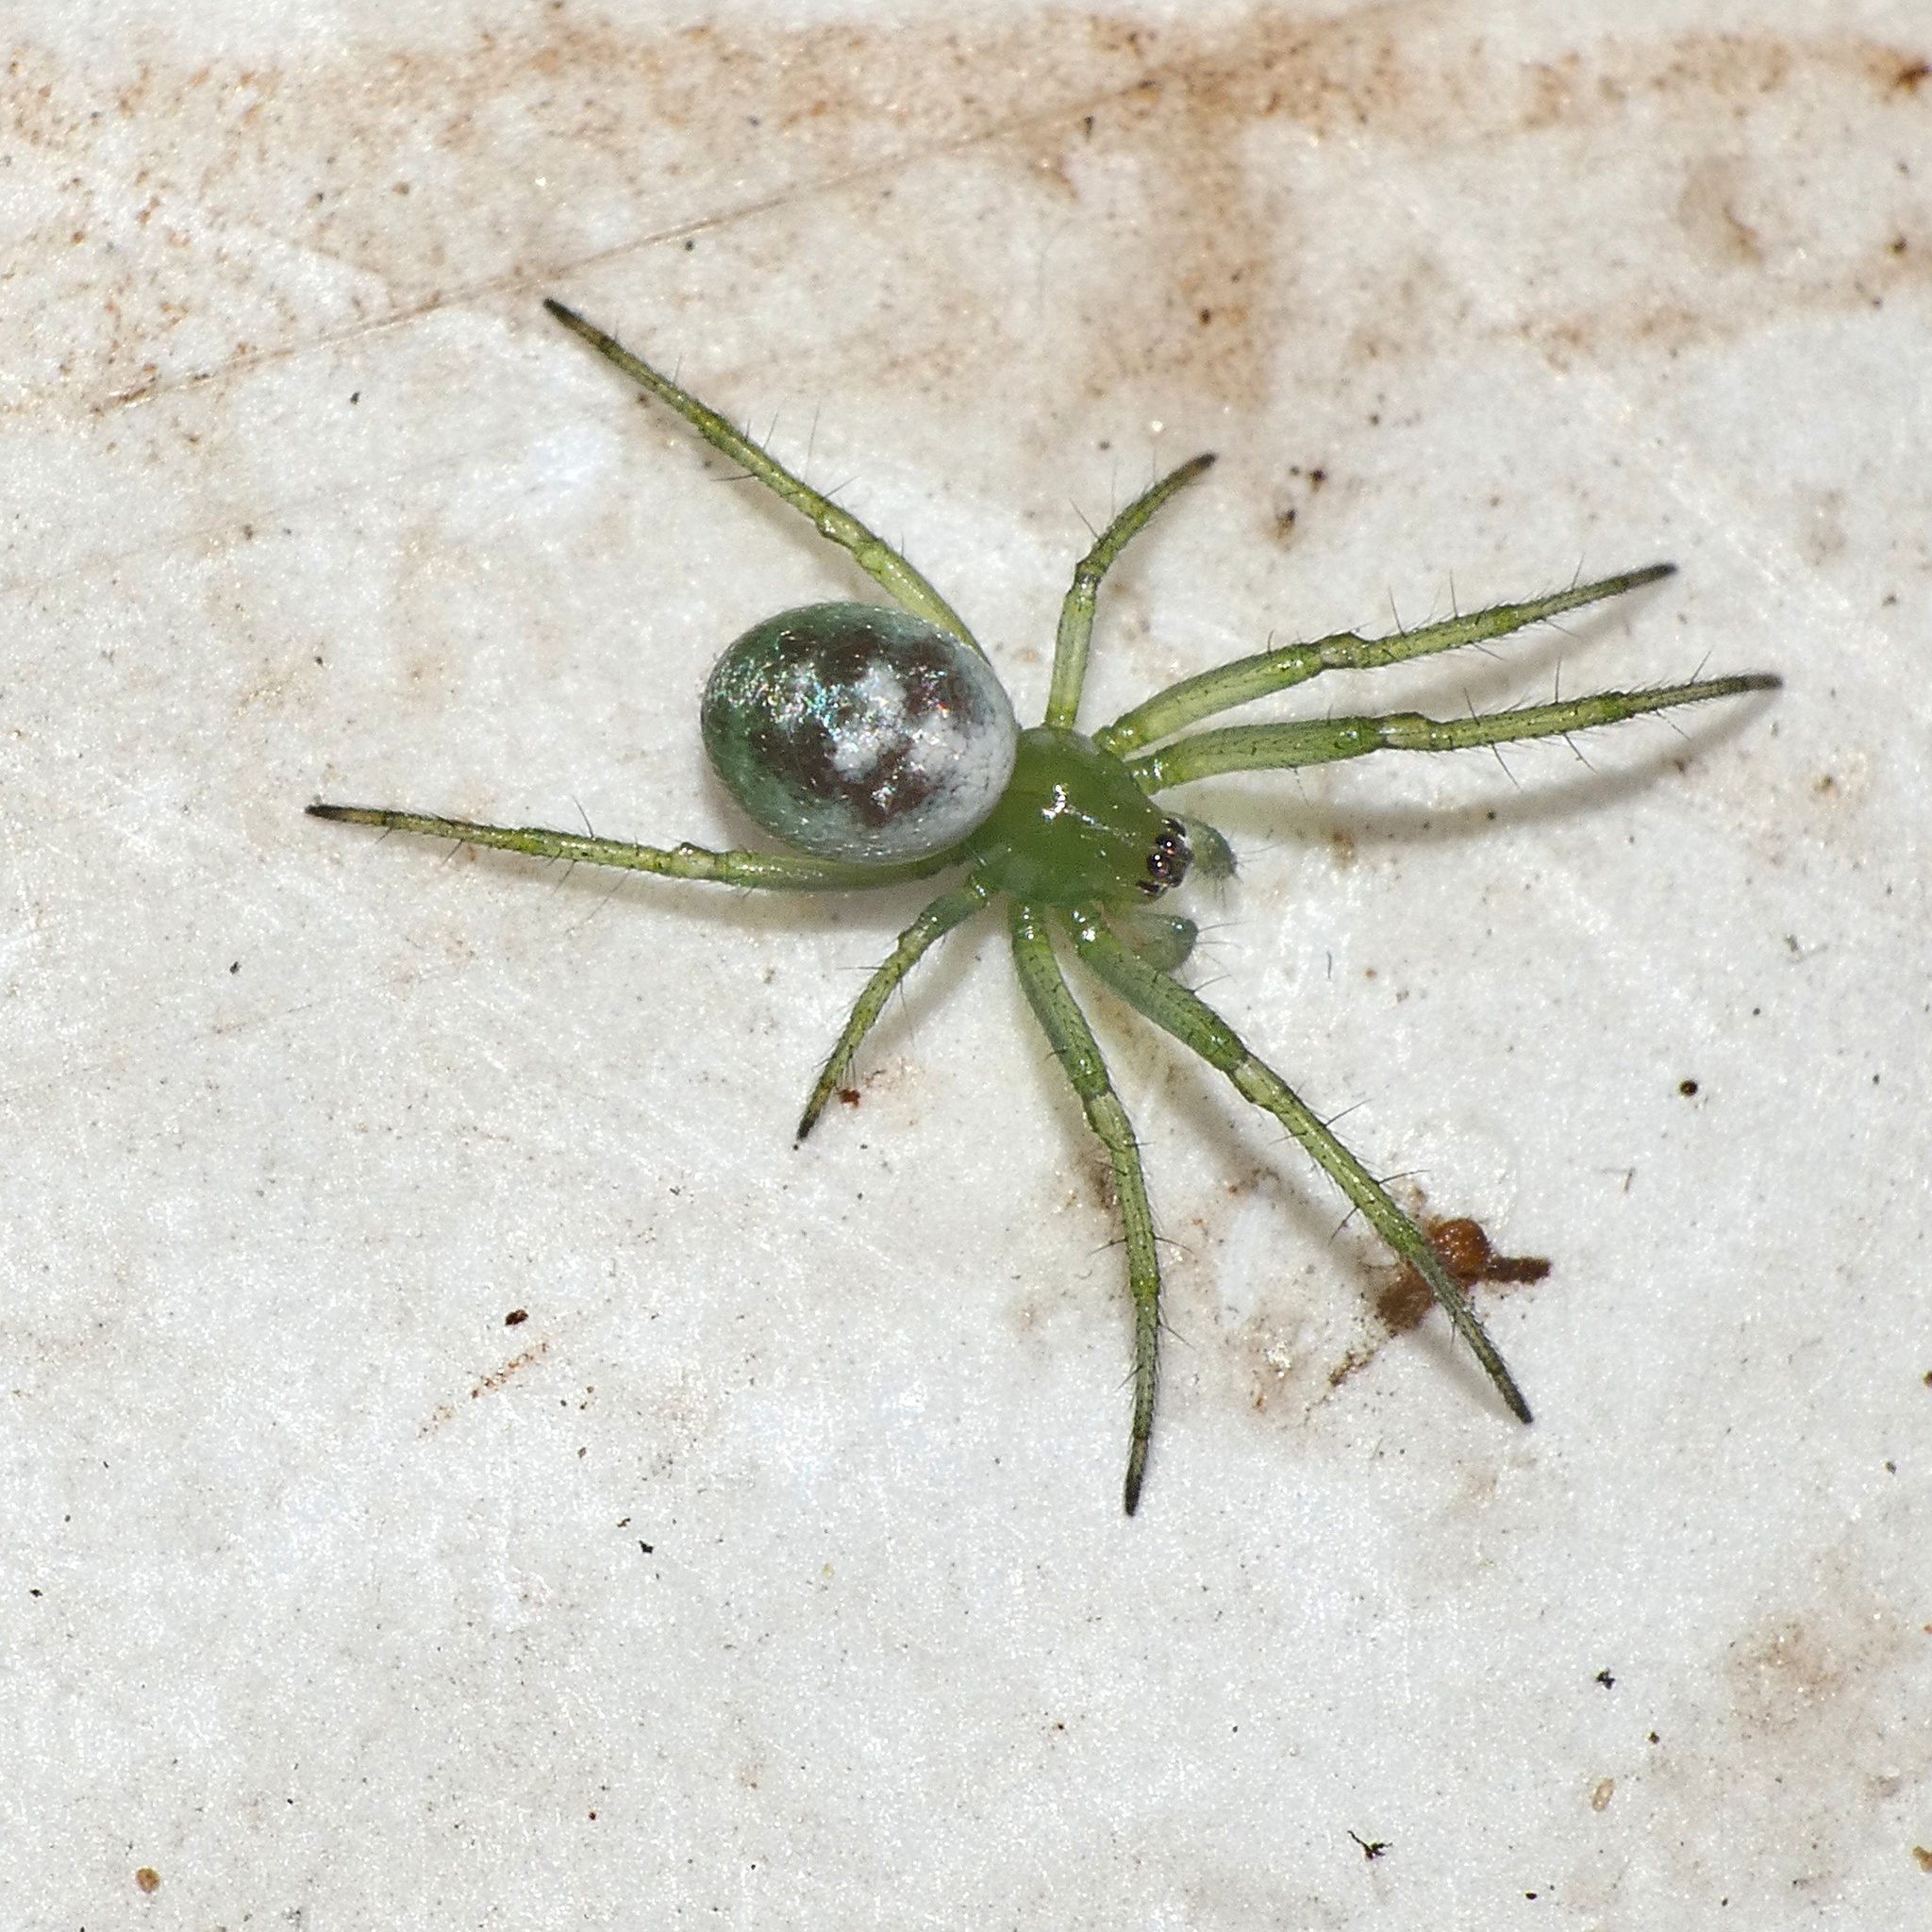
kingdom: Animalia
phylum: Arthropoda
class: Arachnida
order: Araneae
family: Araneidae
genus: Prasonica
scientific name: Prasonica nigrotaeniata
